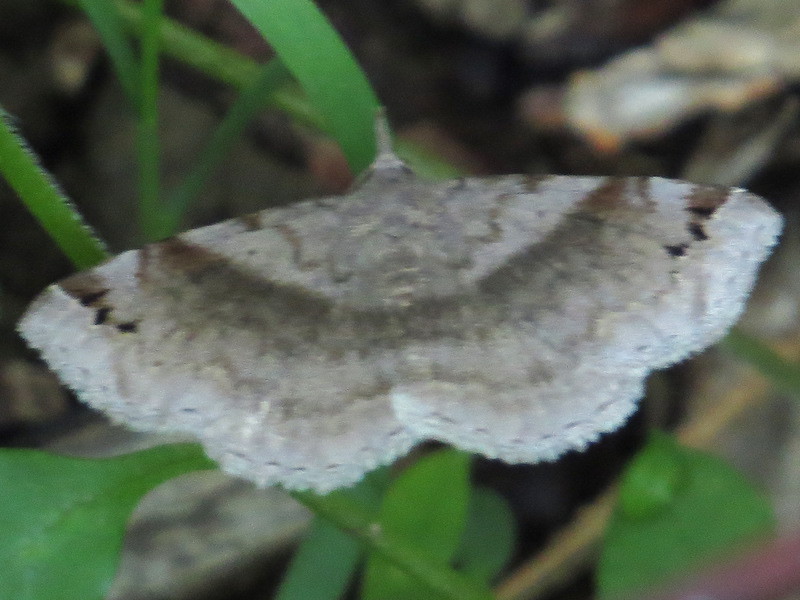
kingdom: Animalia
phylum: Arthropoda
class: Insecta
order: Lepidoptera
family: Erebidae
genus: Spargaloma
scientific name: Spargaloma sexpunctata
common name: Six-spotted gray
